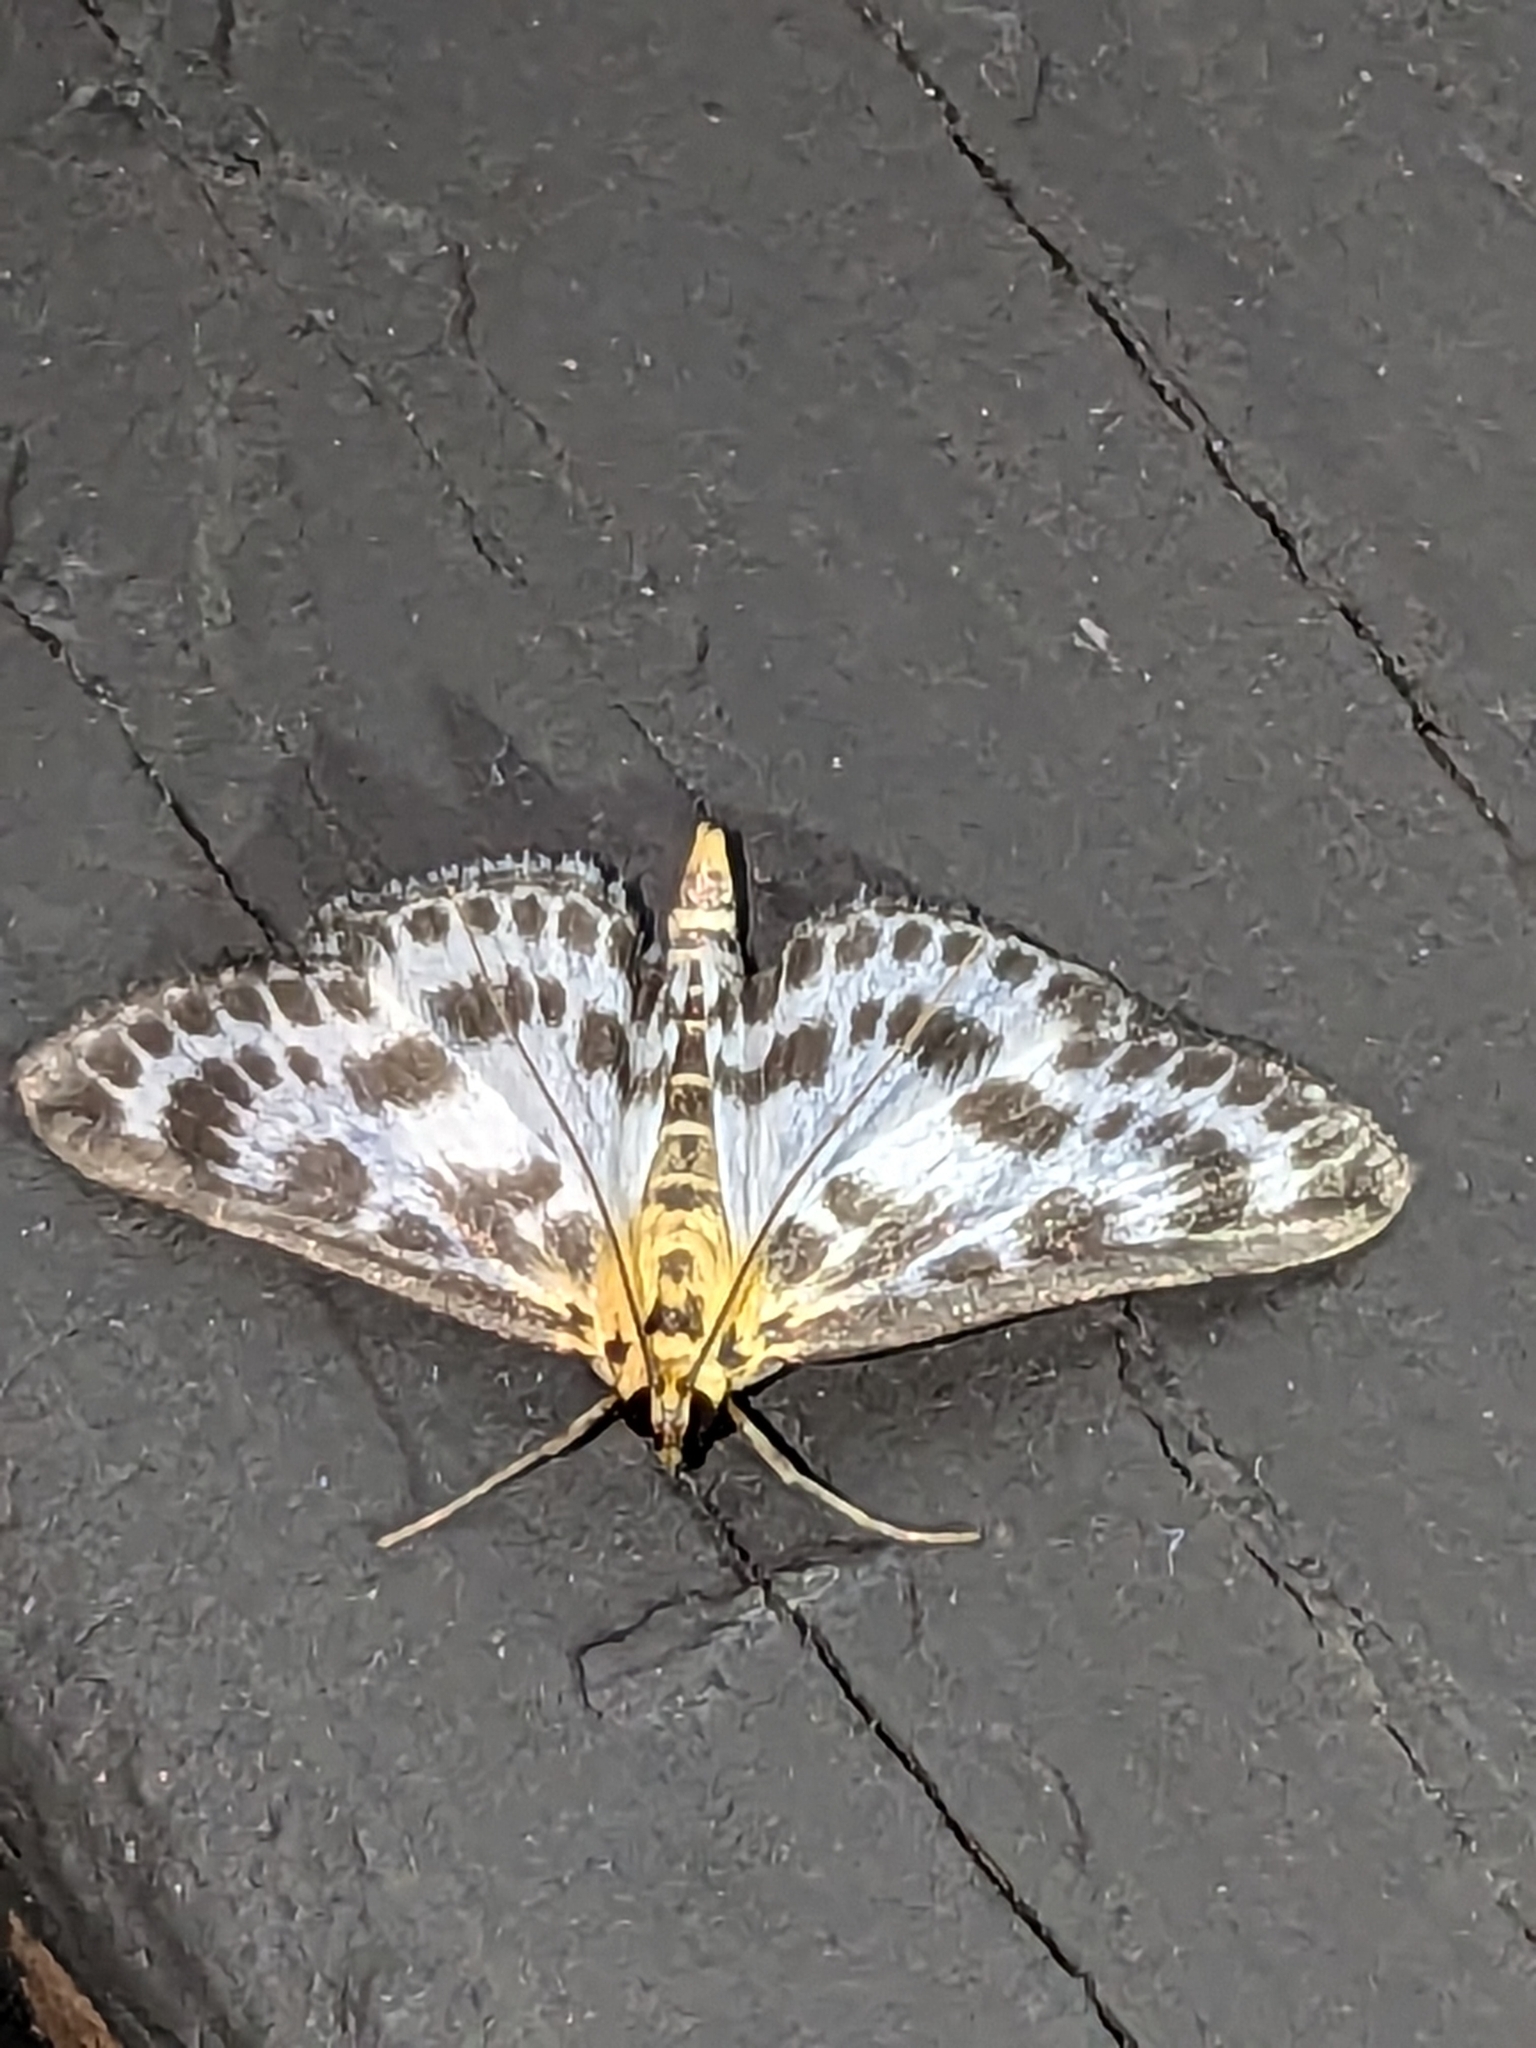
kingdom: Animalia
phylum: Arthropoda
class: Insecta
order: Lepidoptera
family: Crambidae
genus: Anania
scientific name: Anania hortulata
